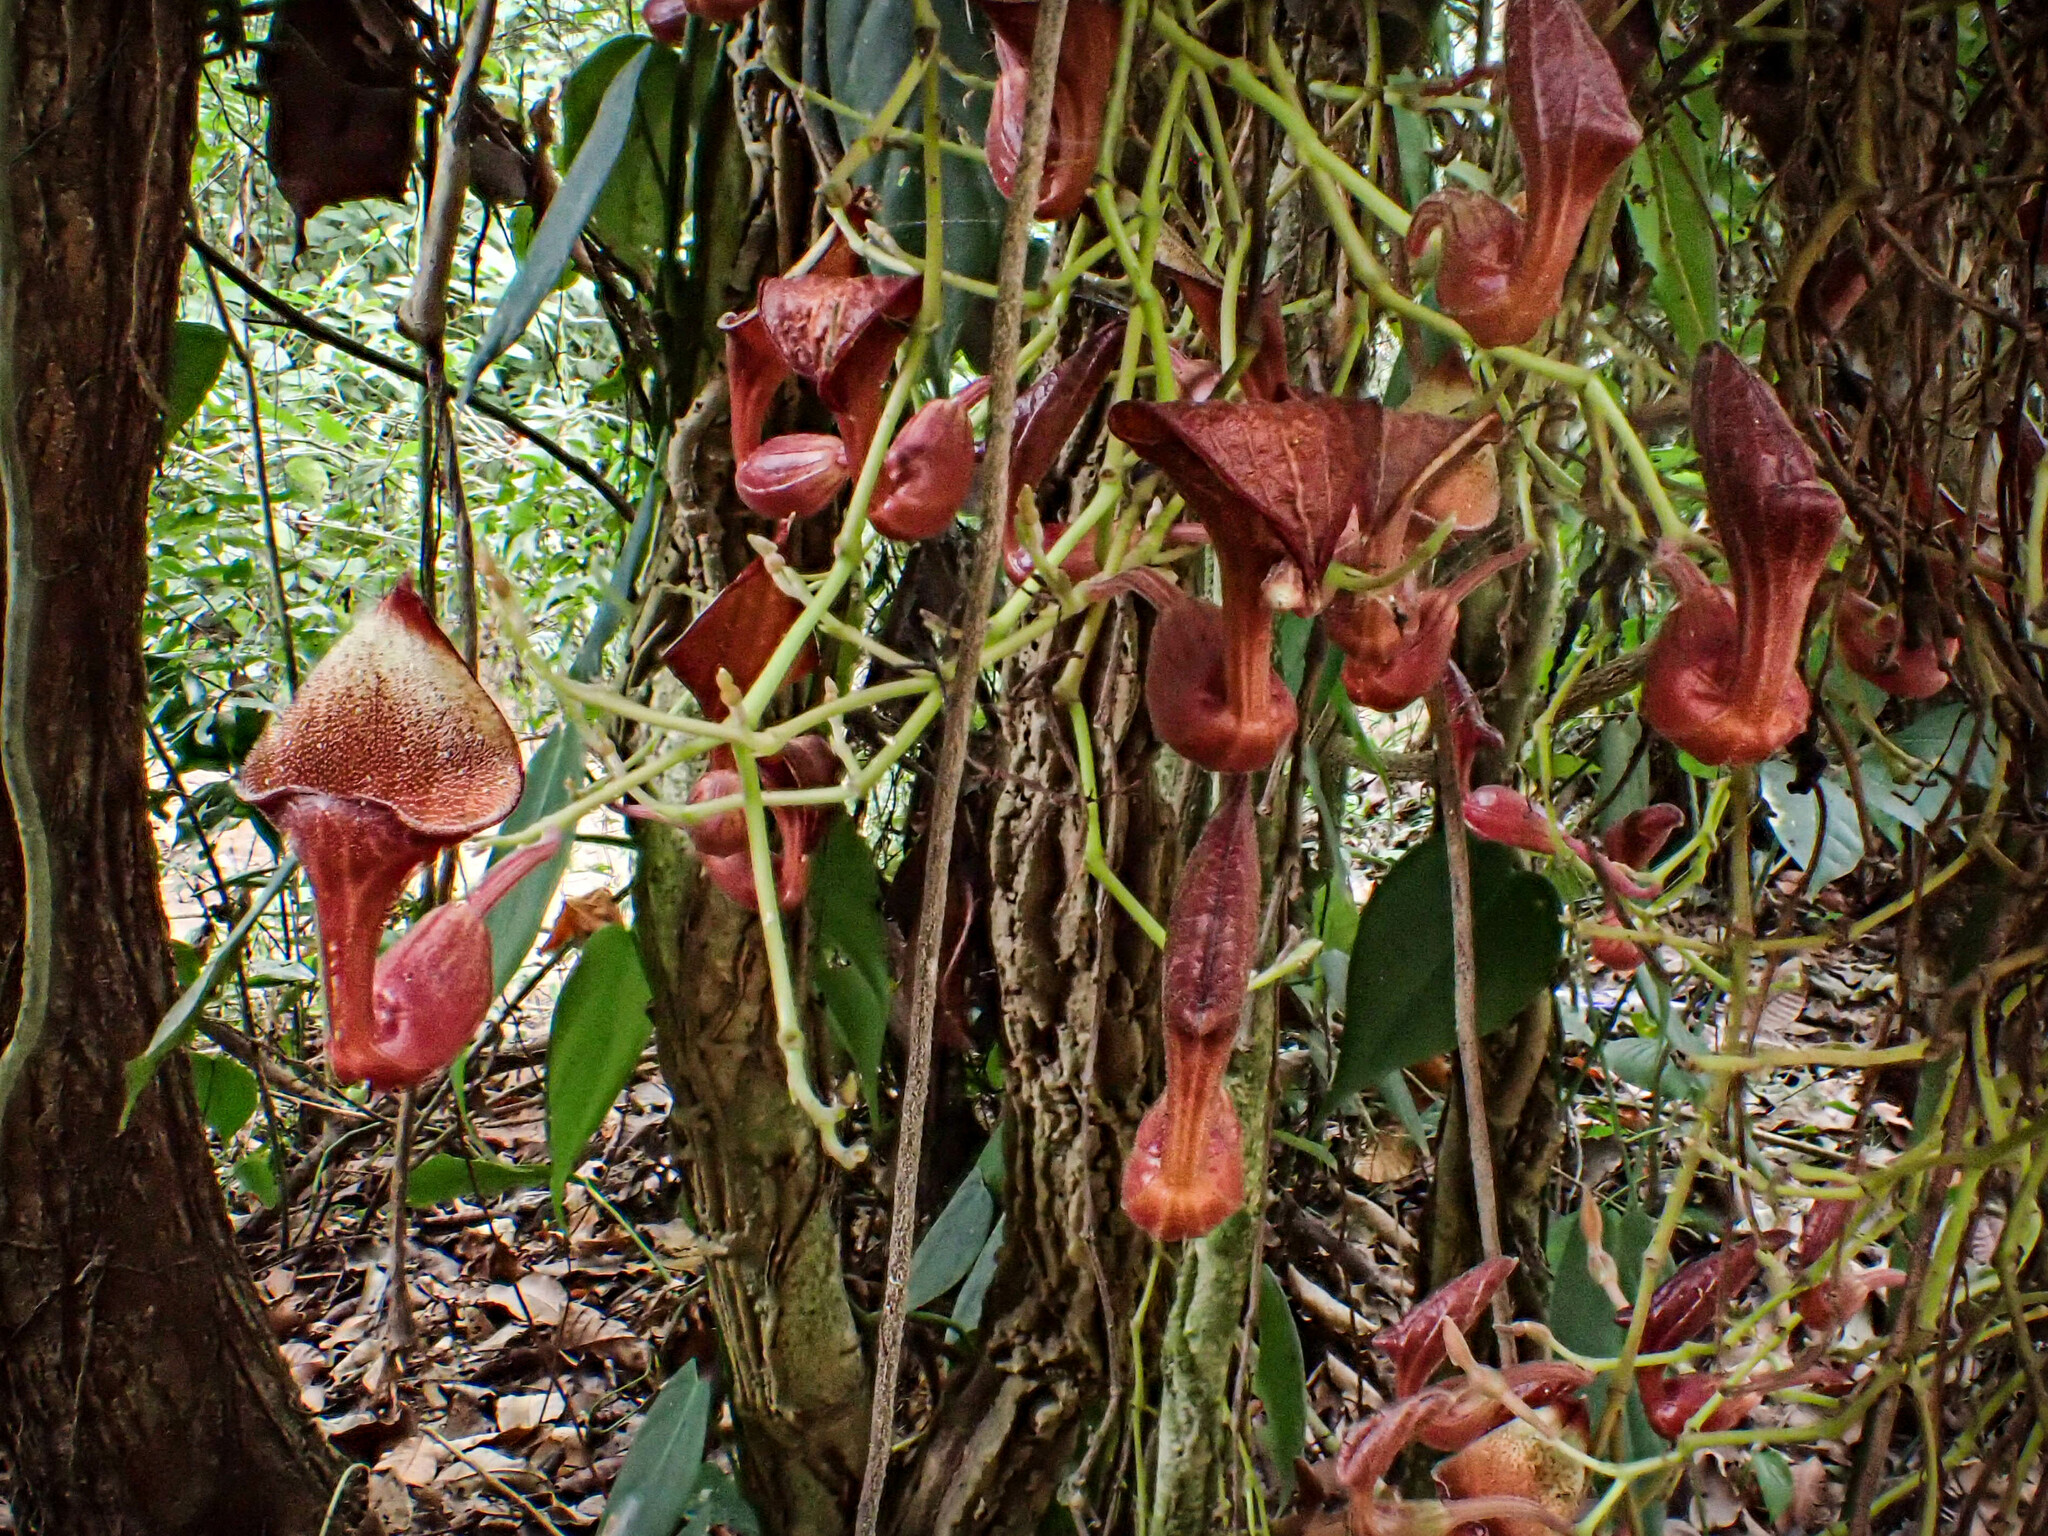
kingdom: Plantae
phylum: Tracheophyta
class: Magnoliopsida
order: Piperales
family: Aristolochiaceae
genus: Aristolochia
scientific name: Aristolochia maxima
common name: Florida dutchman's pipe
